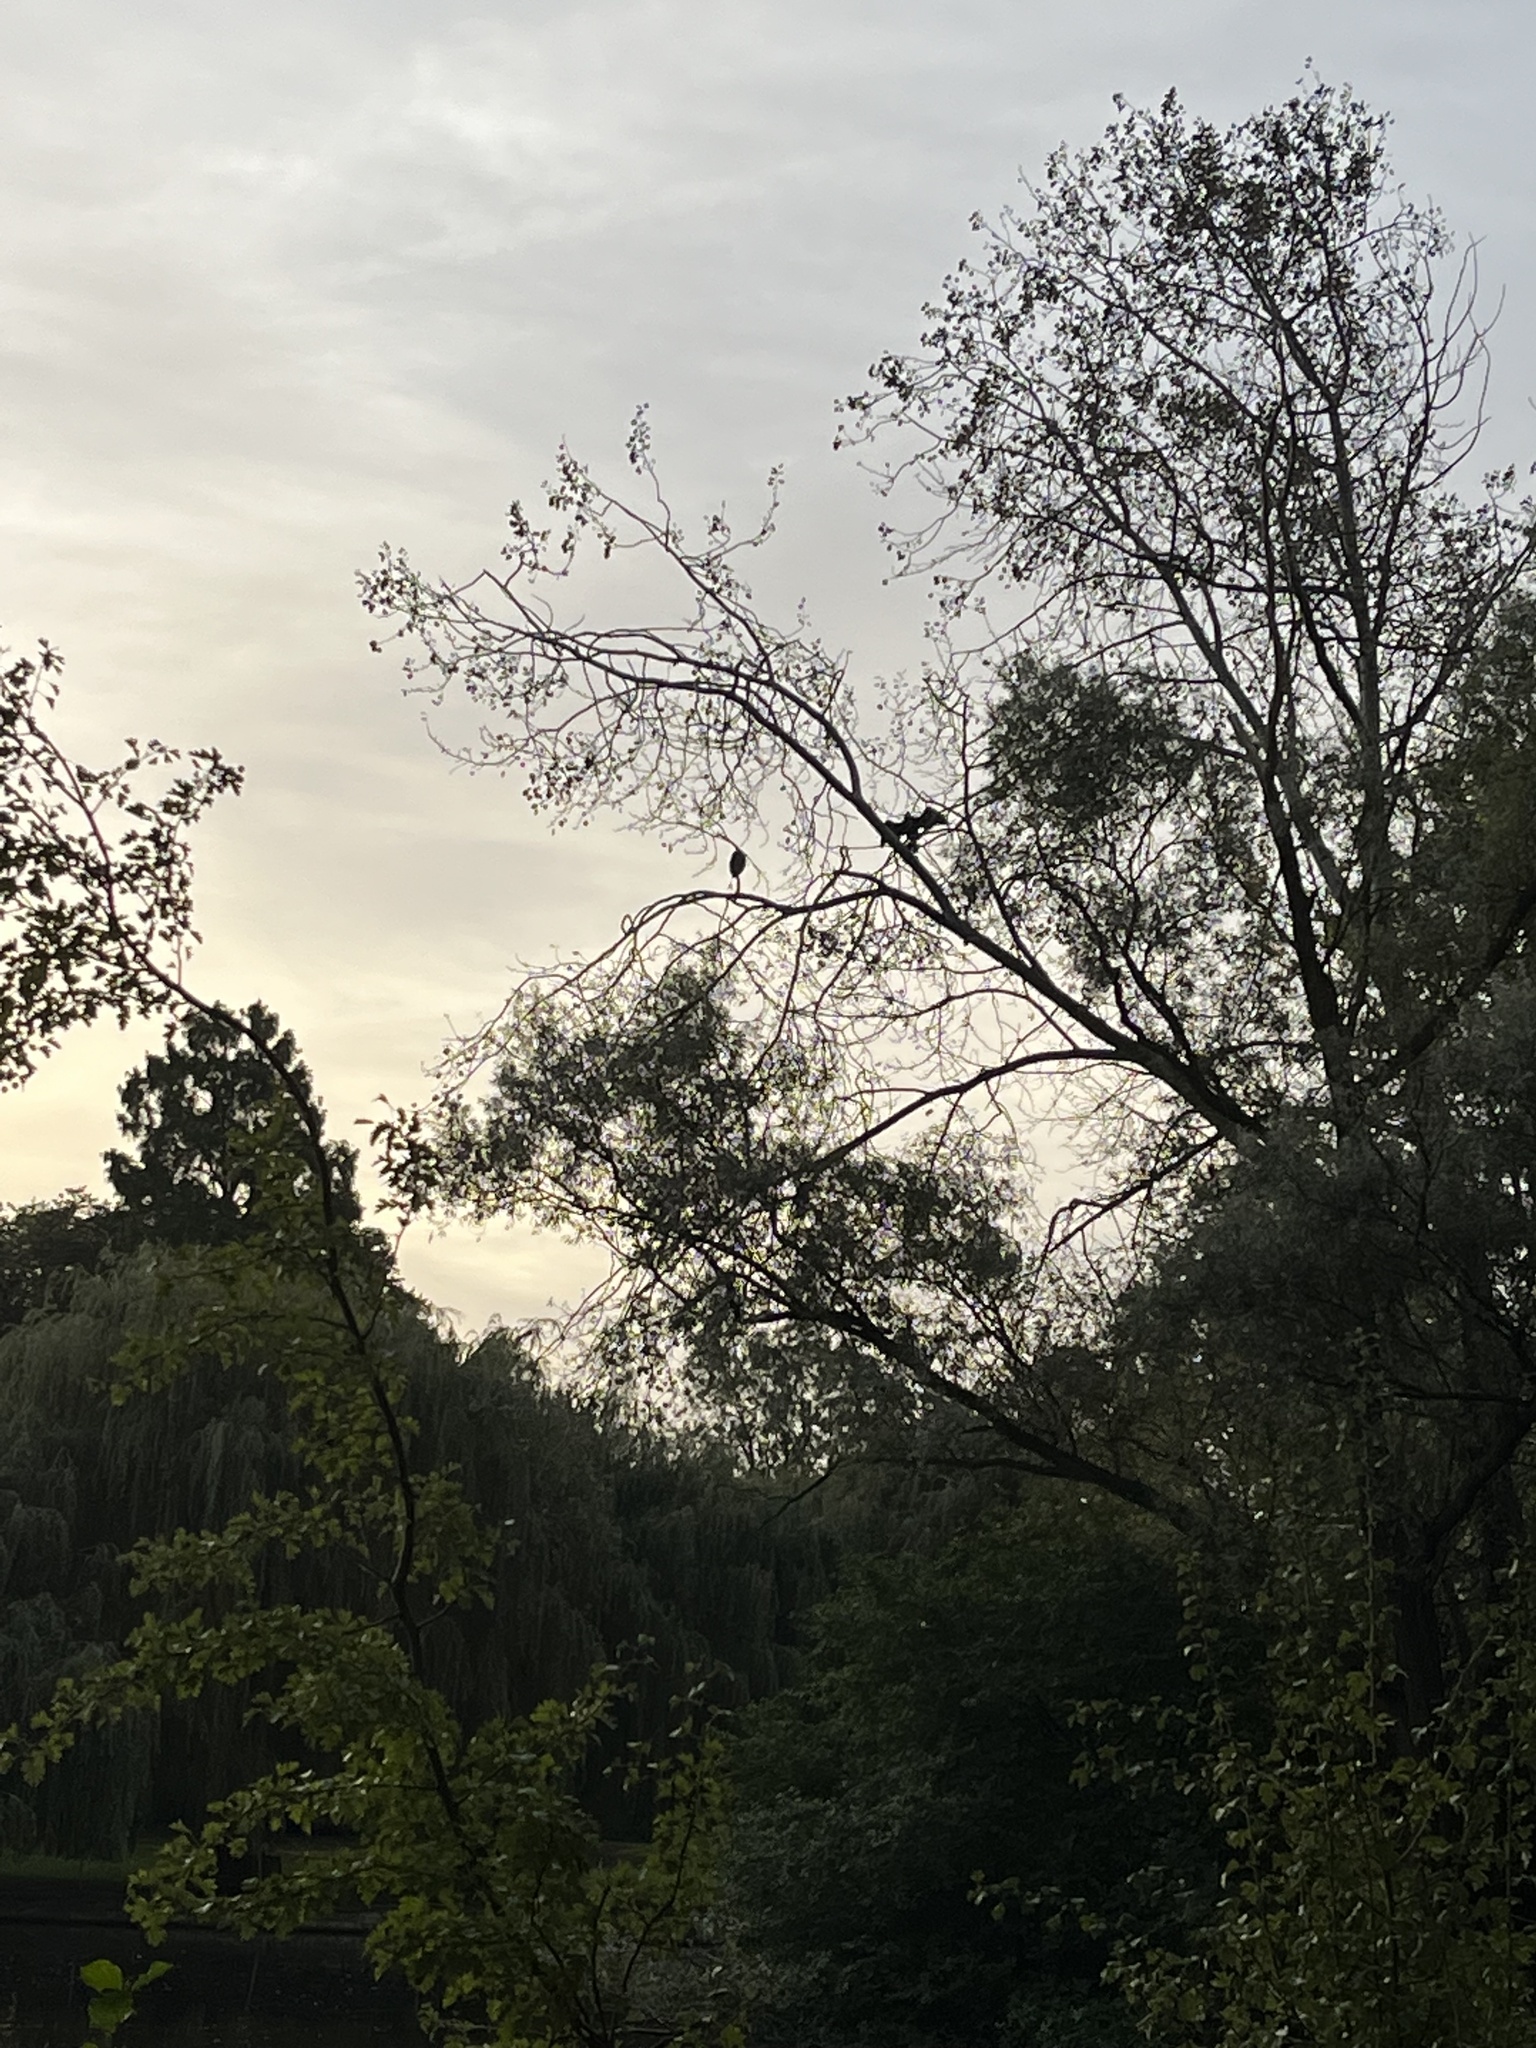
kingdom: Animalia
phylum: Chordata
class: Aves
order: Suliformes
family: Phalacrocoracidae
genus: Phalacrocorax
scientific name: Phalacrocorax carbo
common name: Great cormorant
